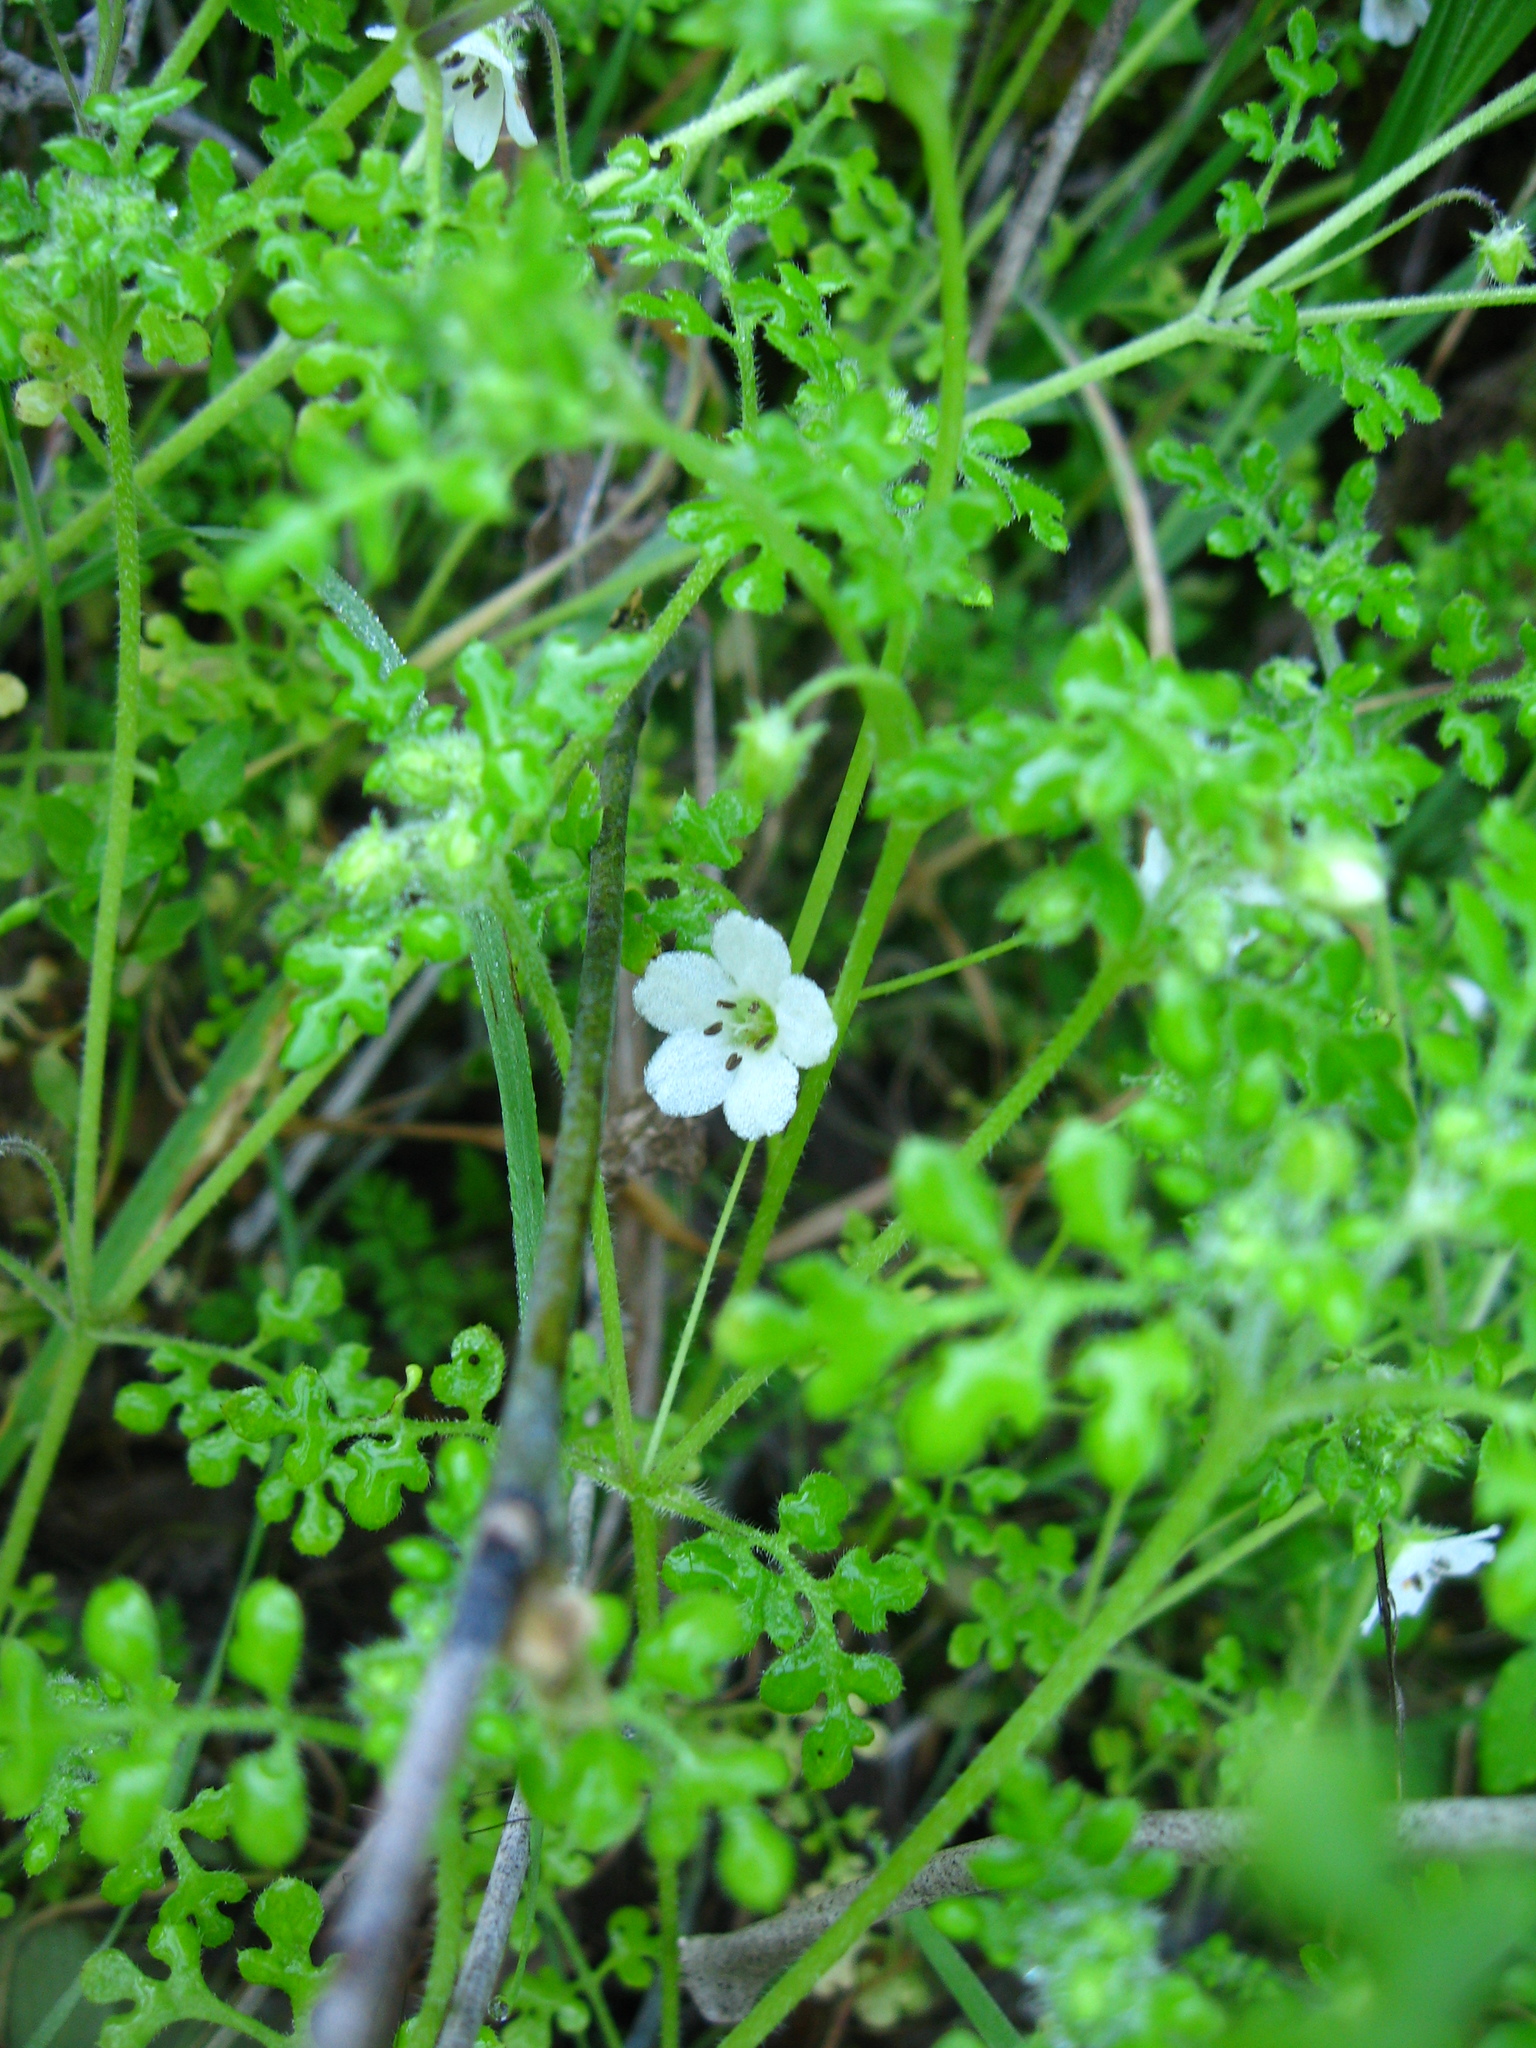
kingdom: Plantae
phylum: Tracheophyta
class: Magnoliopsida
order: Boraginales
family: Hydrophyllaceae
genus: Nemophila
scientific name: Nemophila heterophylla
